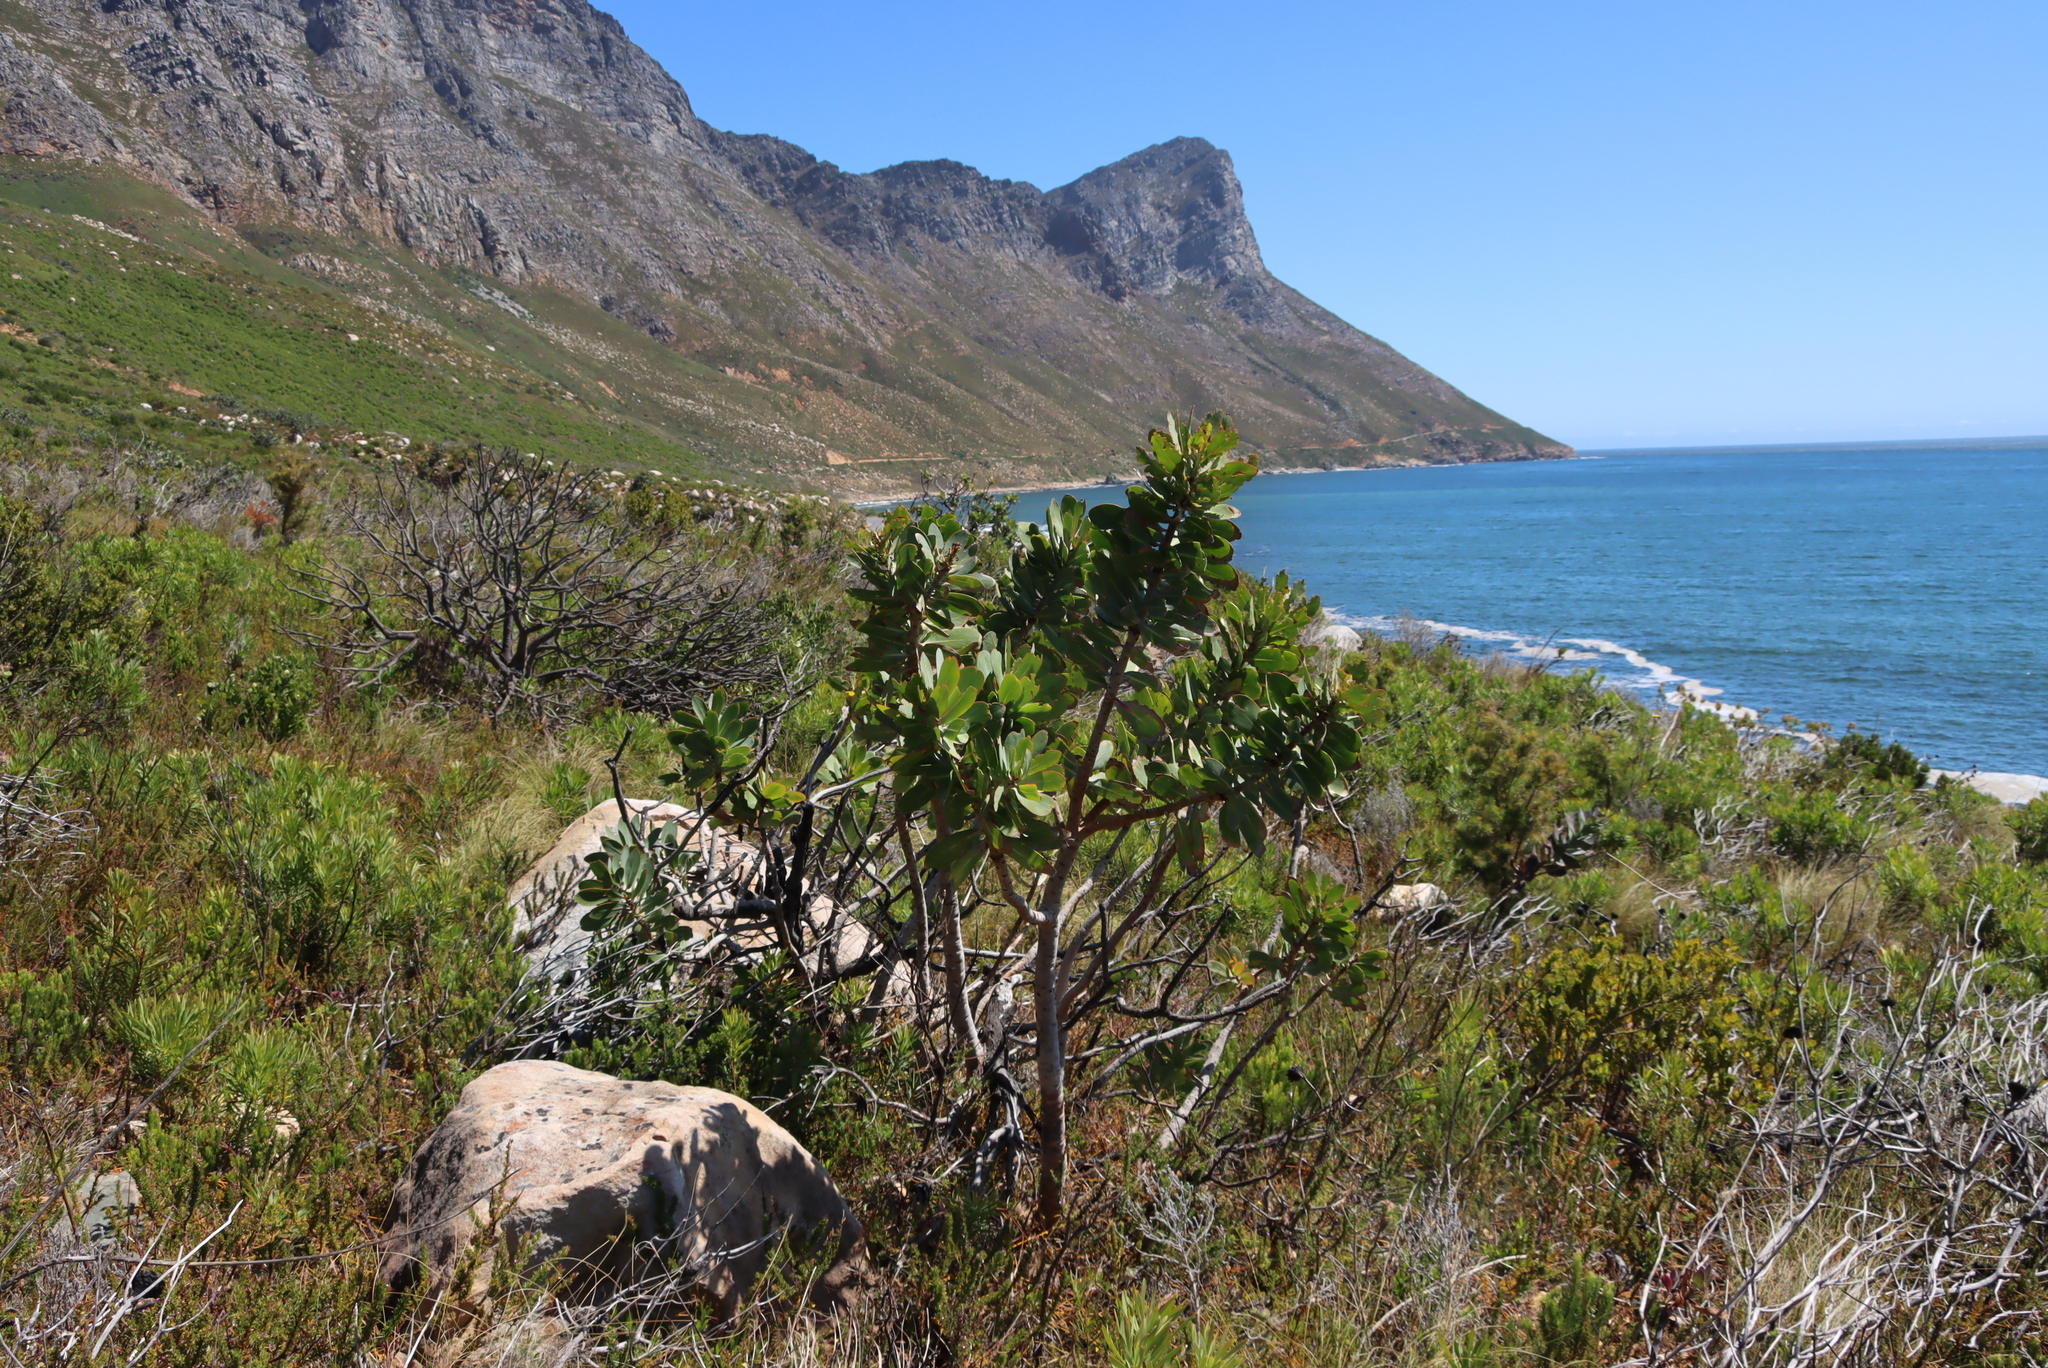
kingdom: Plantae
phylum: Tracheophyta
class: Magnoliopsida
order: Proteales
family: Proteaceae
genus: Protea
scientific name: Protea nitida
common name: Tree protea
